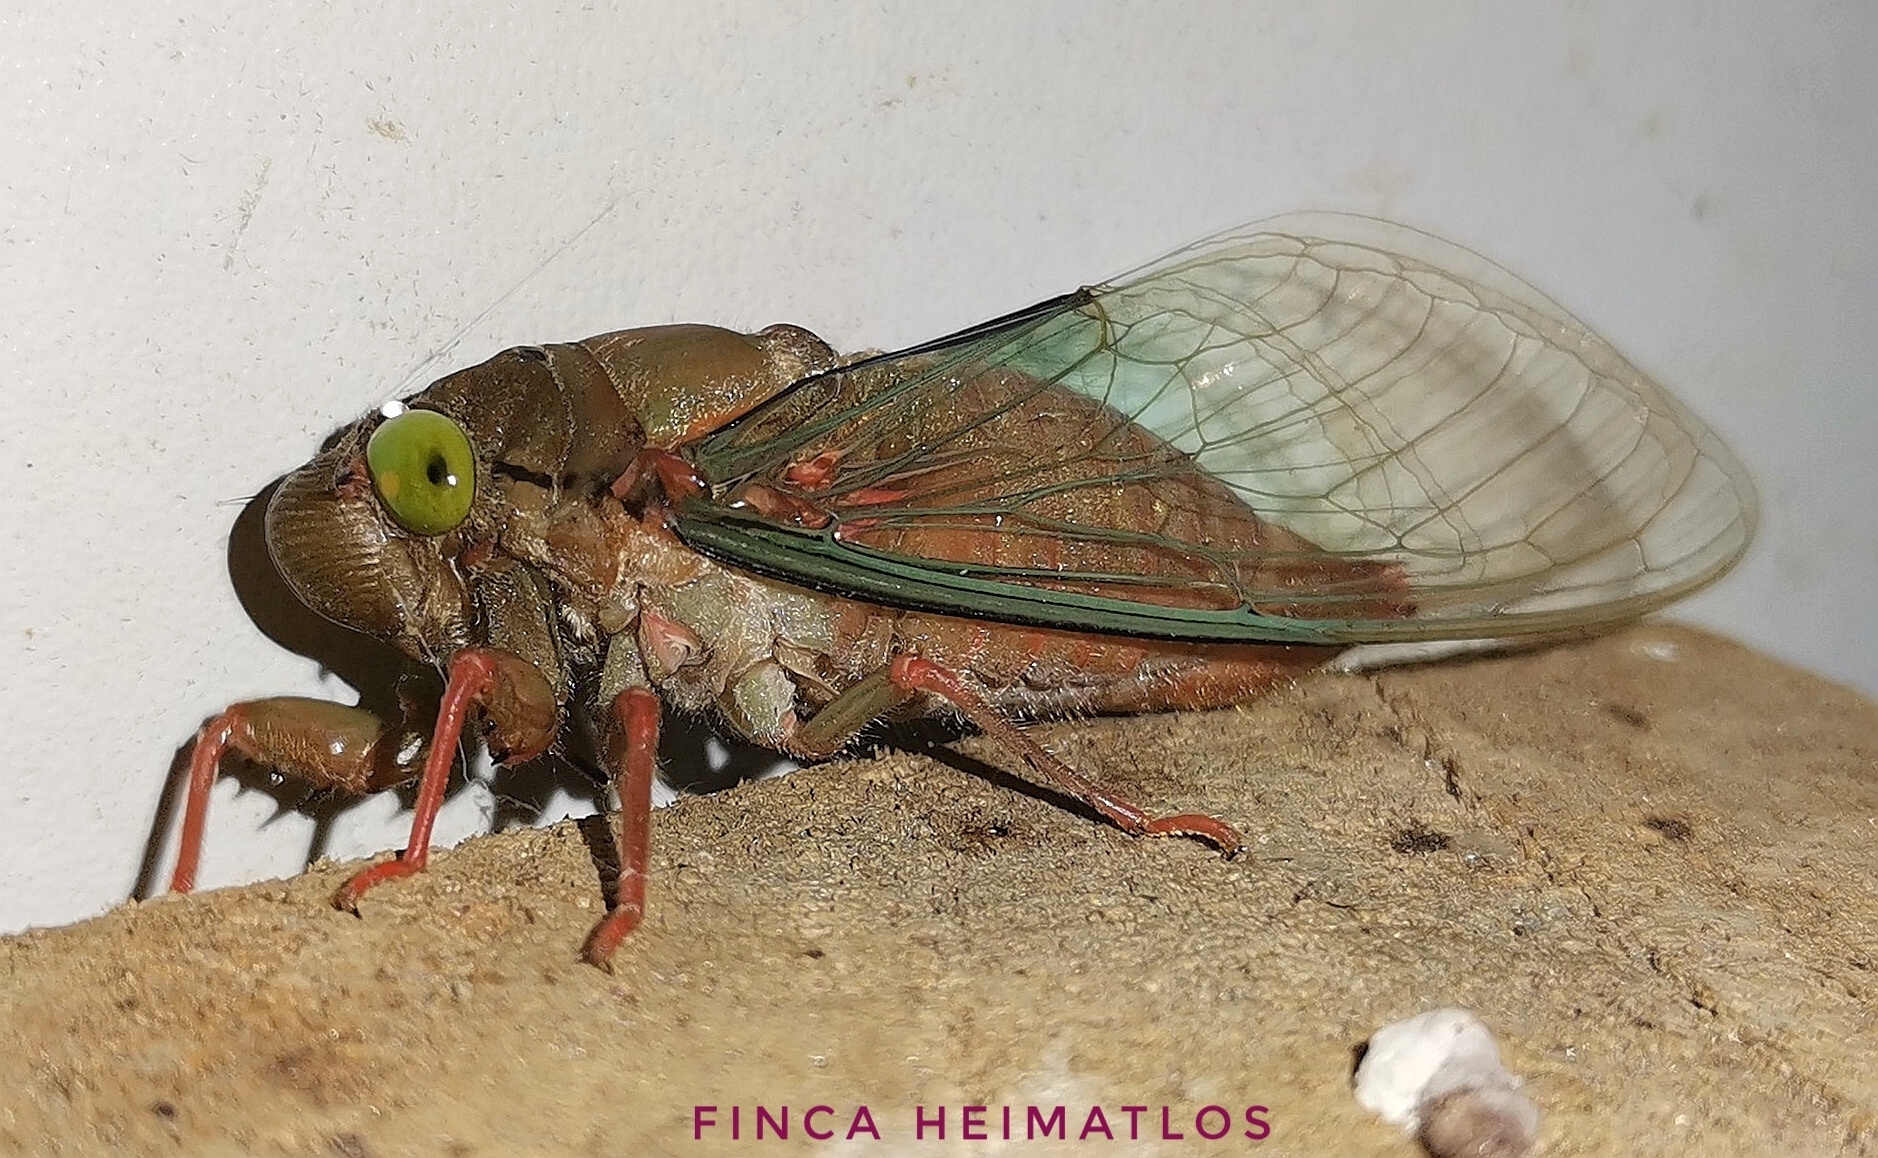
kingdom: Animalia
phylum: Arthropoda
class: Insecta
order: Hemiptera
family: Cicadidae
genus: Carineta
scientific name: Carineta rufescens
